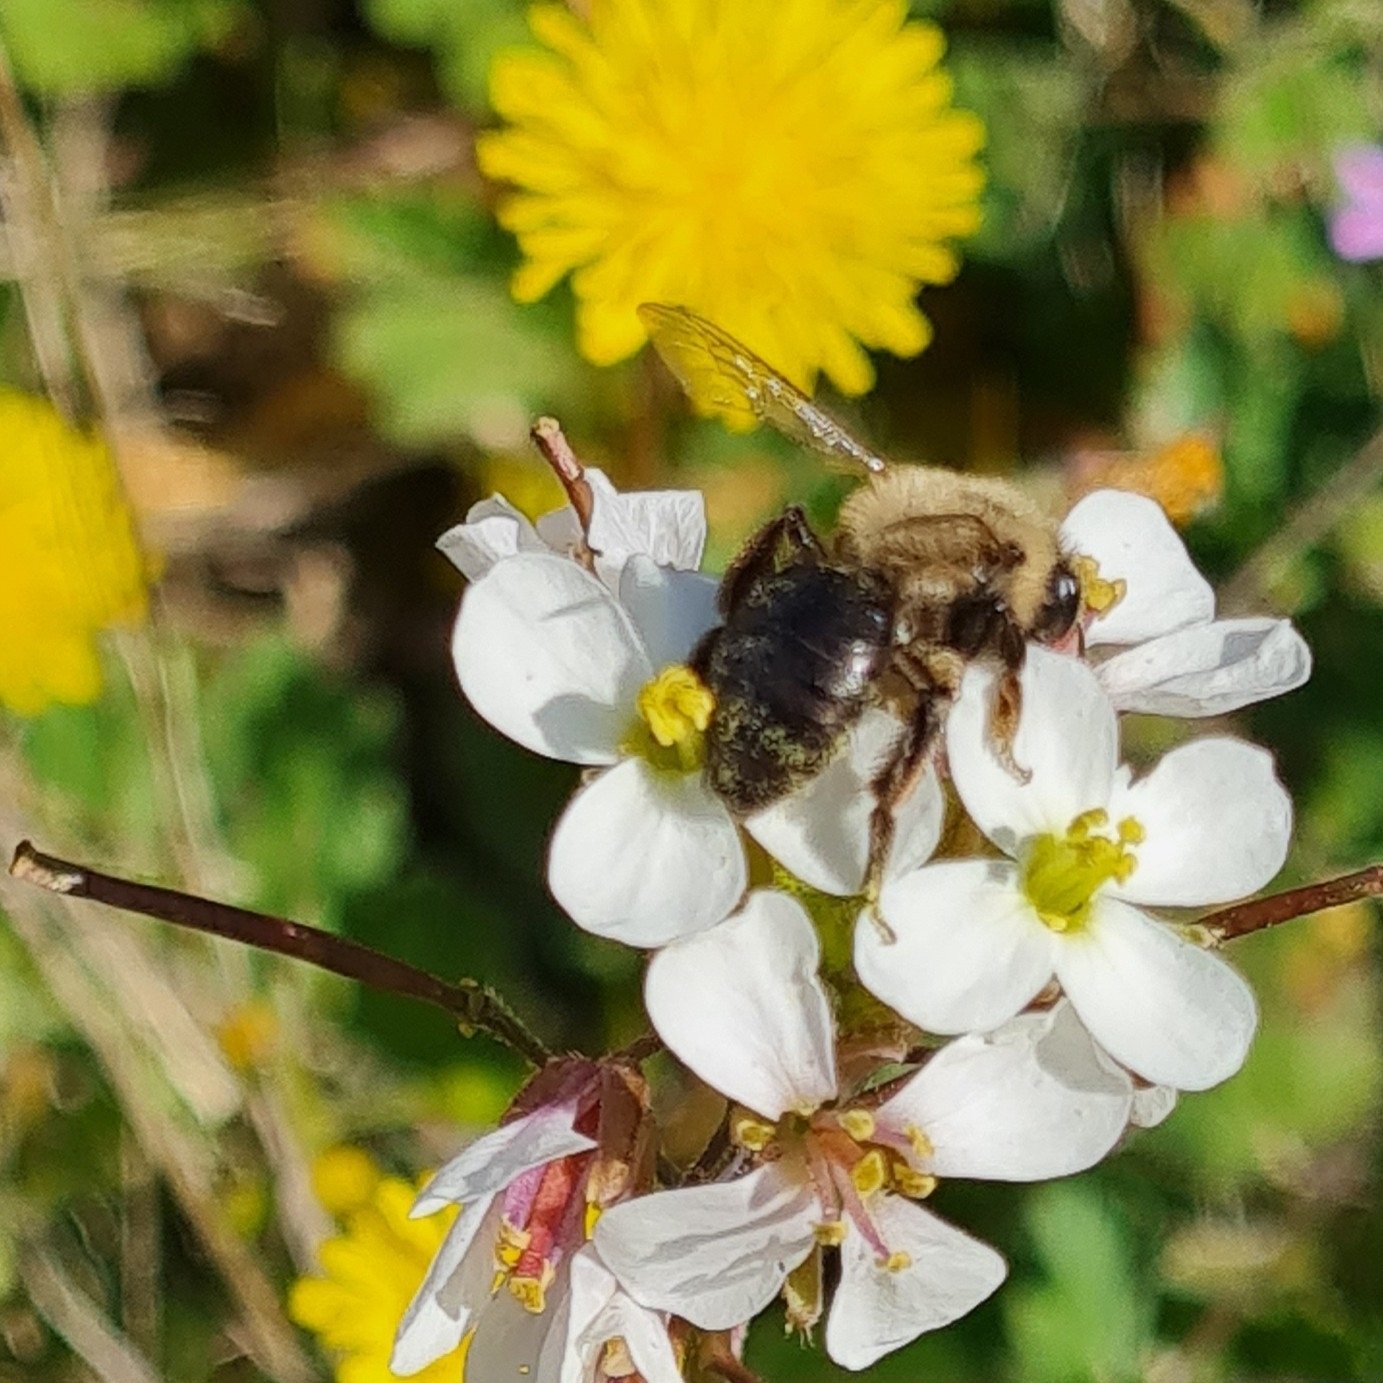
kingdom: Animalia
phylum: Arthropoda
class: Insecta
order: Hymenoptera
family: Apidae
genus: Apis
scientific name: Apis mellifera
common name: Honey bee
